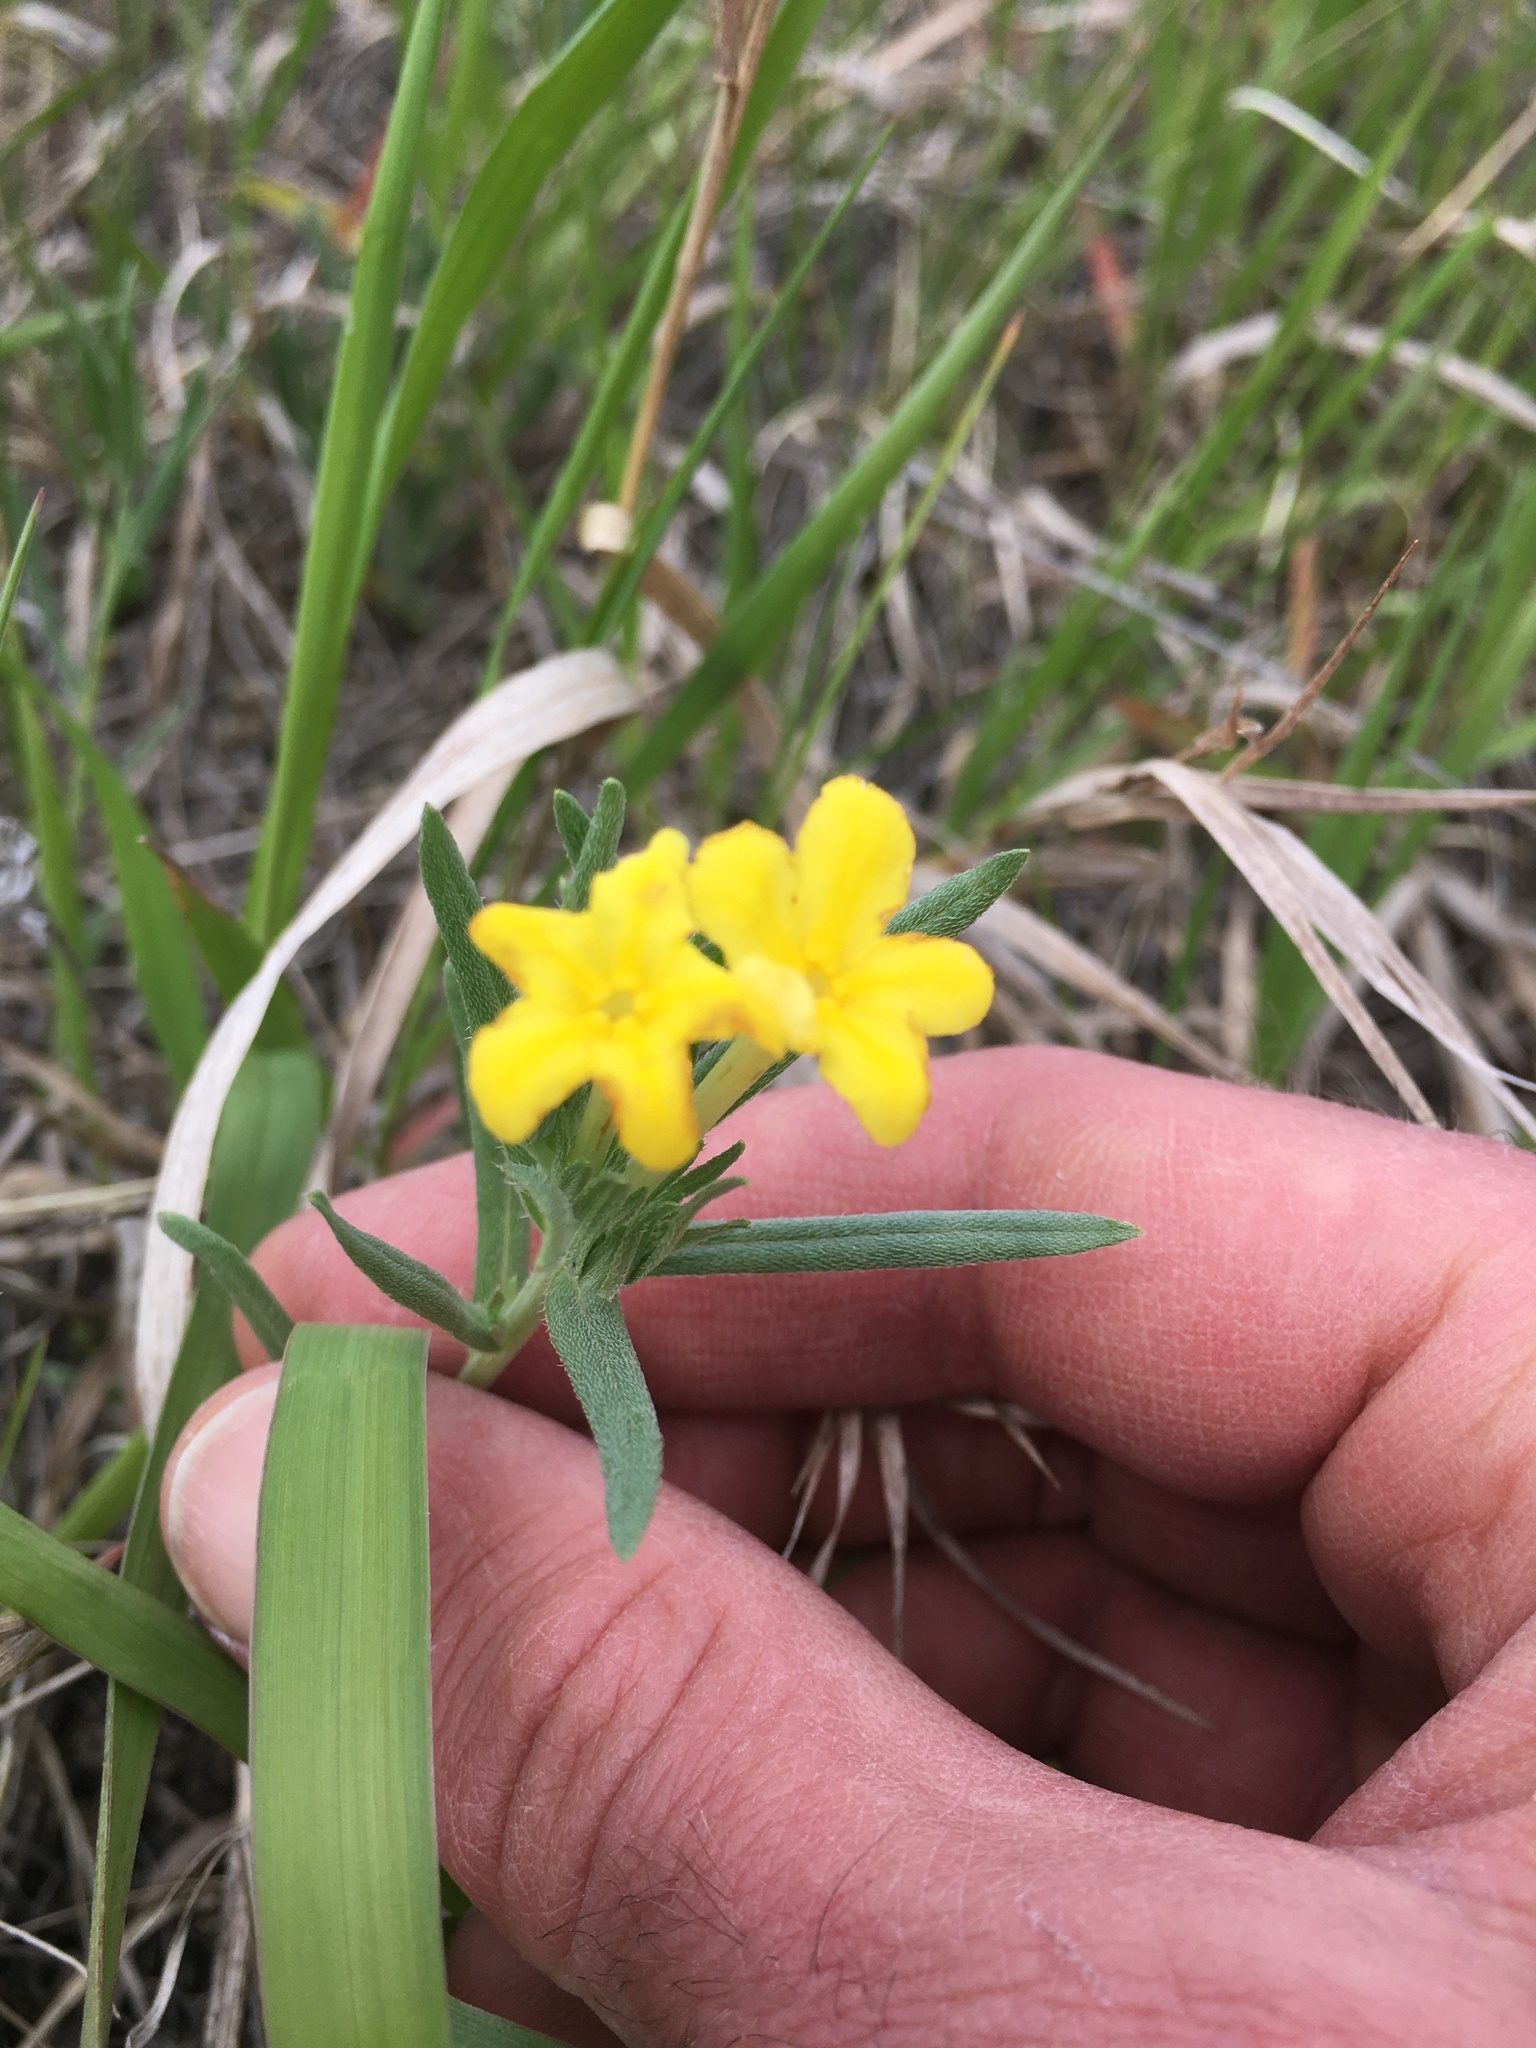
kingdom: Plantae
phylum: Tracheophyta
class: Magnoliopsida
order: Boraginales
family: Boraginaceae
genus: Lithospermum
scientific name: Lithospermum incisum
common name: Fringed gromwell
